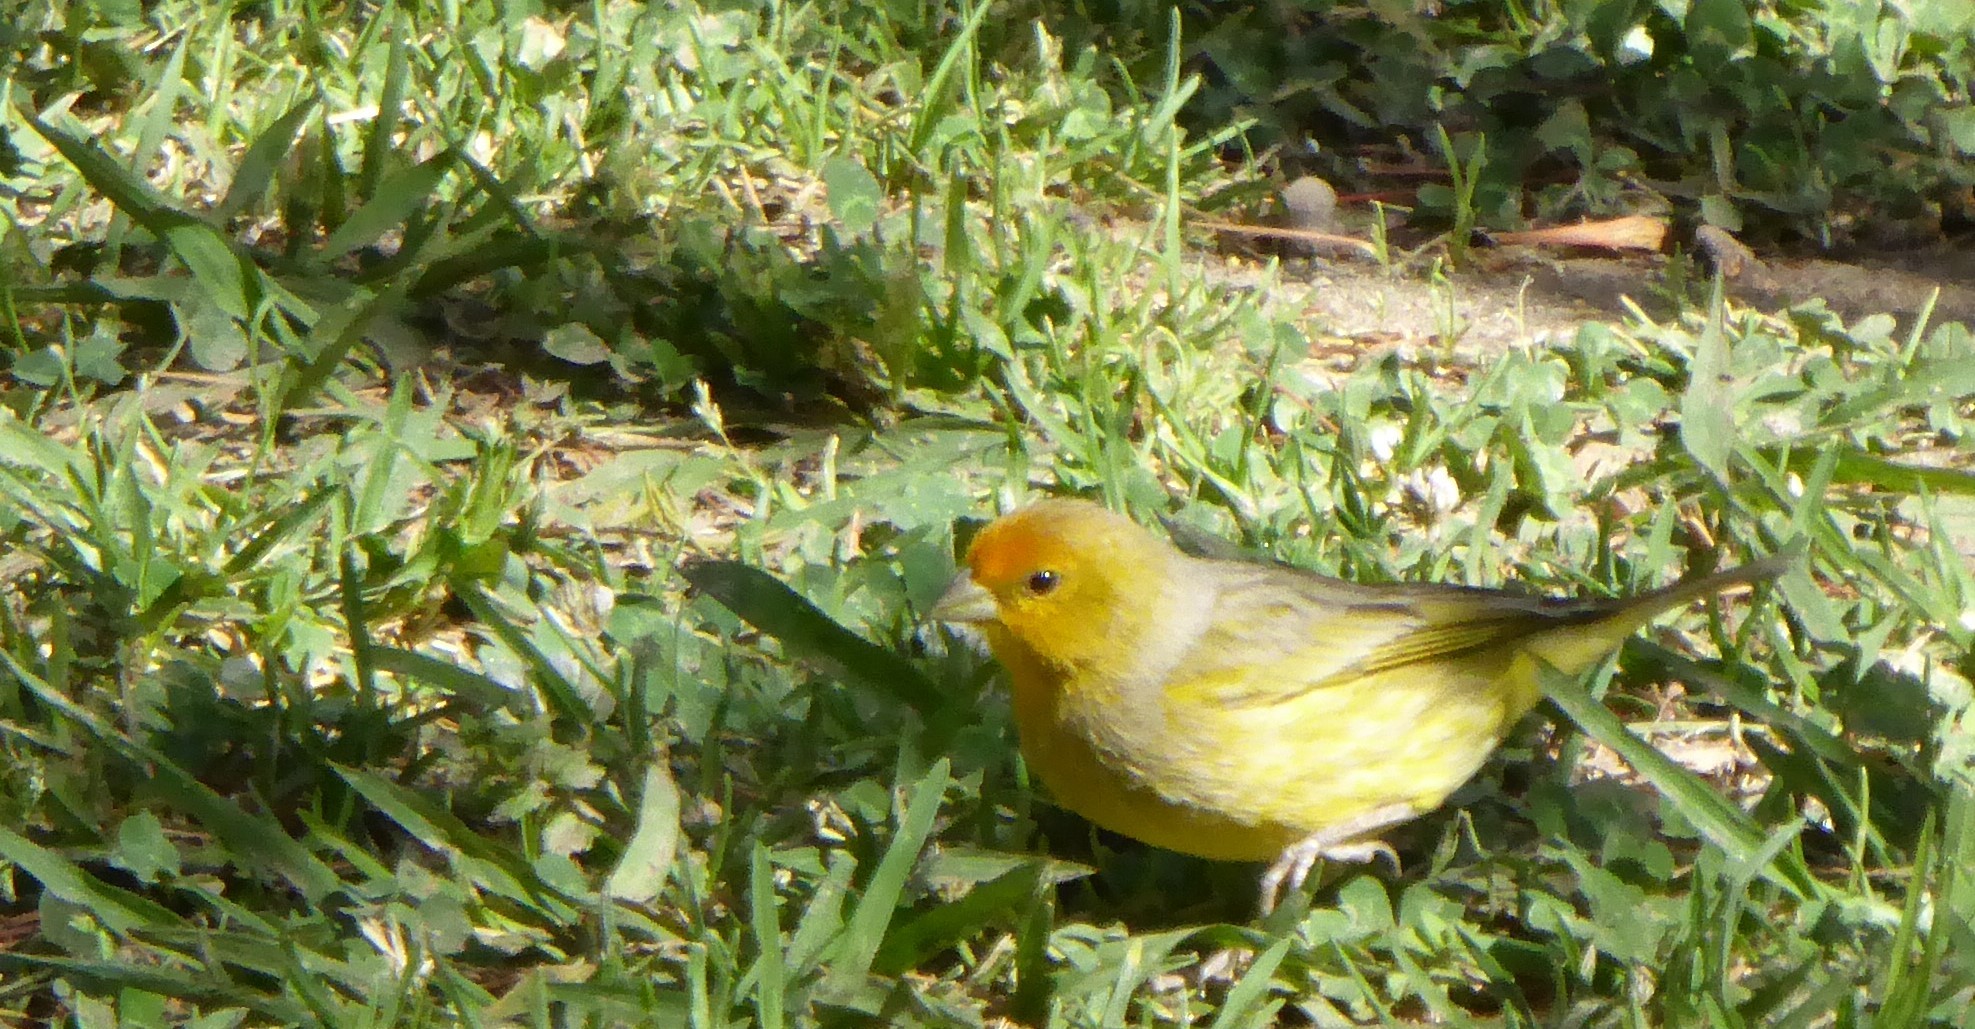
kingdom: Animalia
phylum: Chordata
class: Aves
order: Passeriformes
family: Thraupidae
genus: Sicalis
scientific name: Sicalis flaveola
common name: Saffron finch
